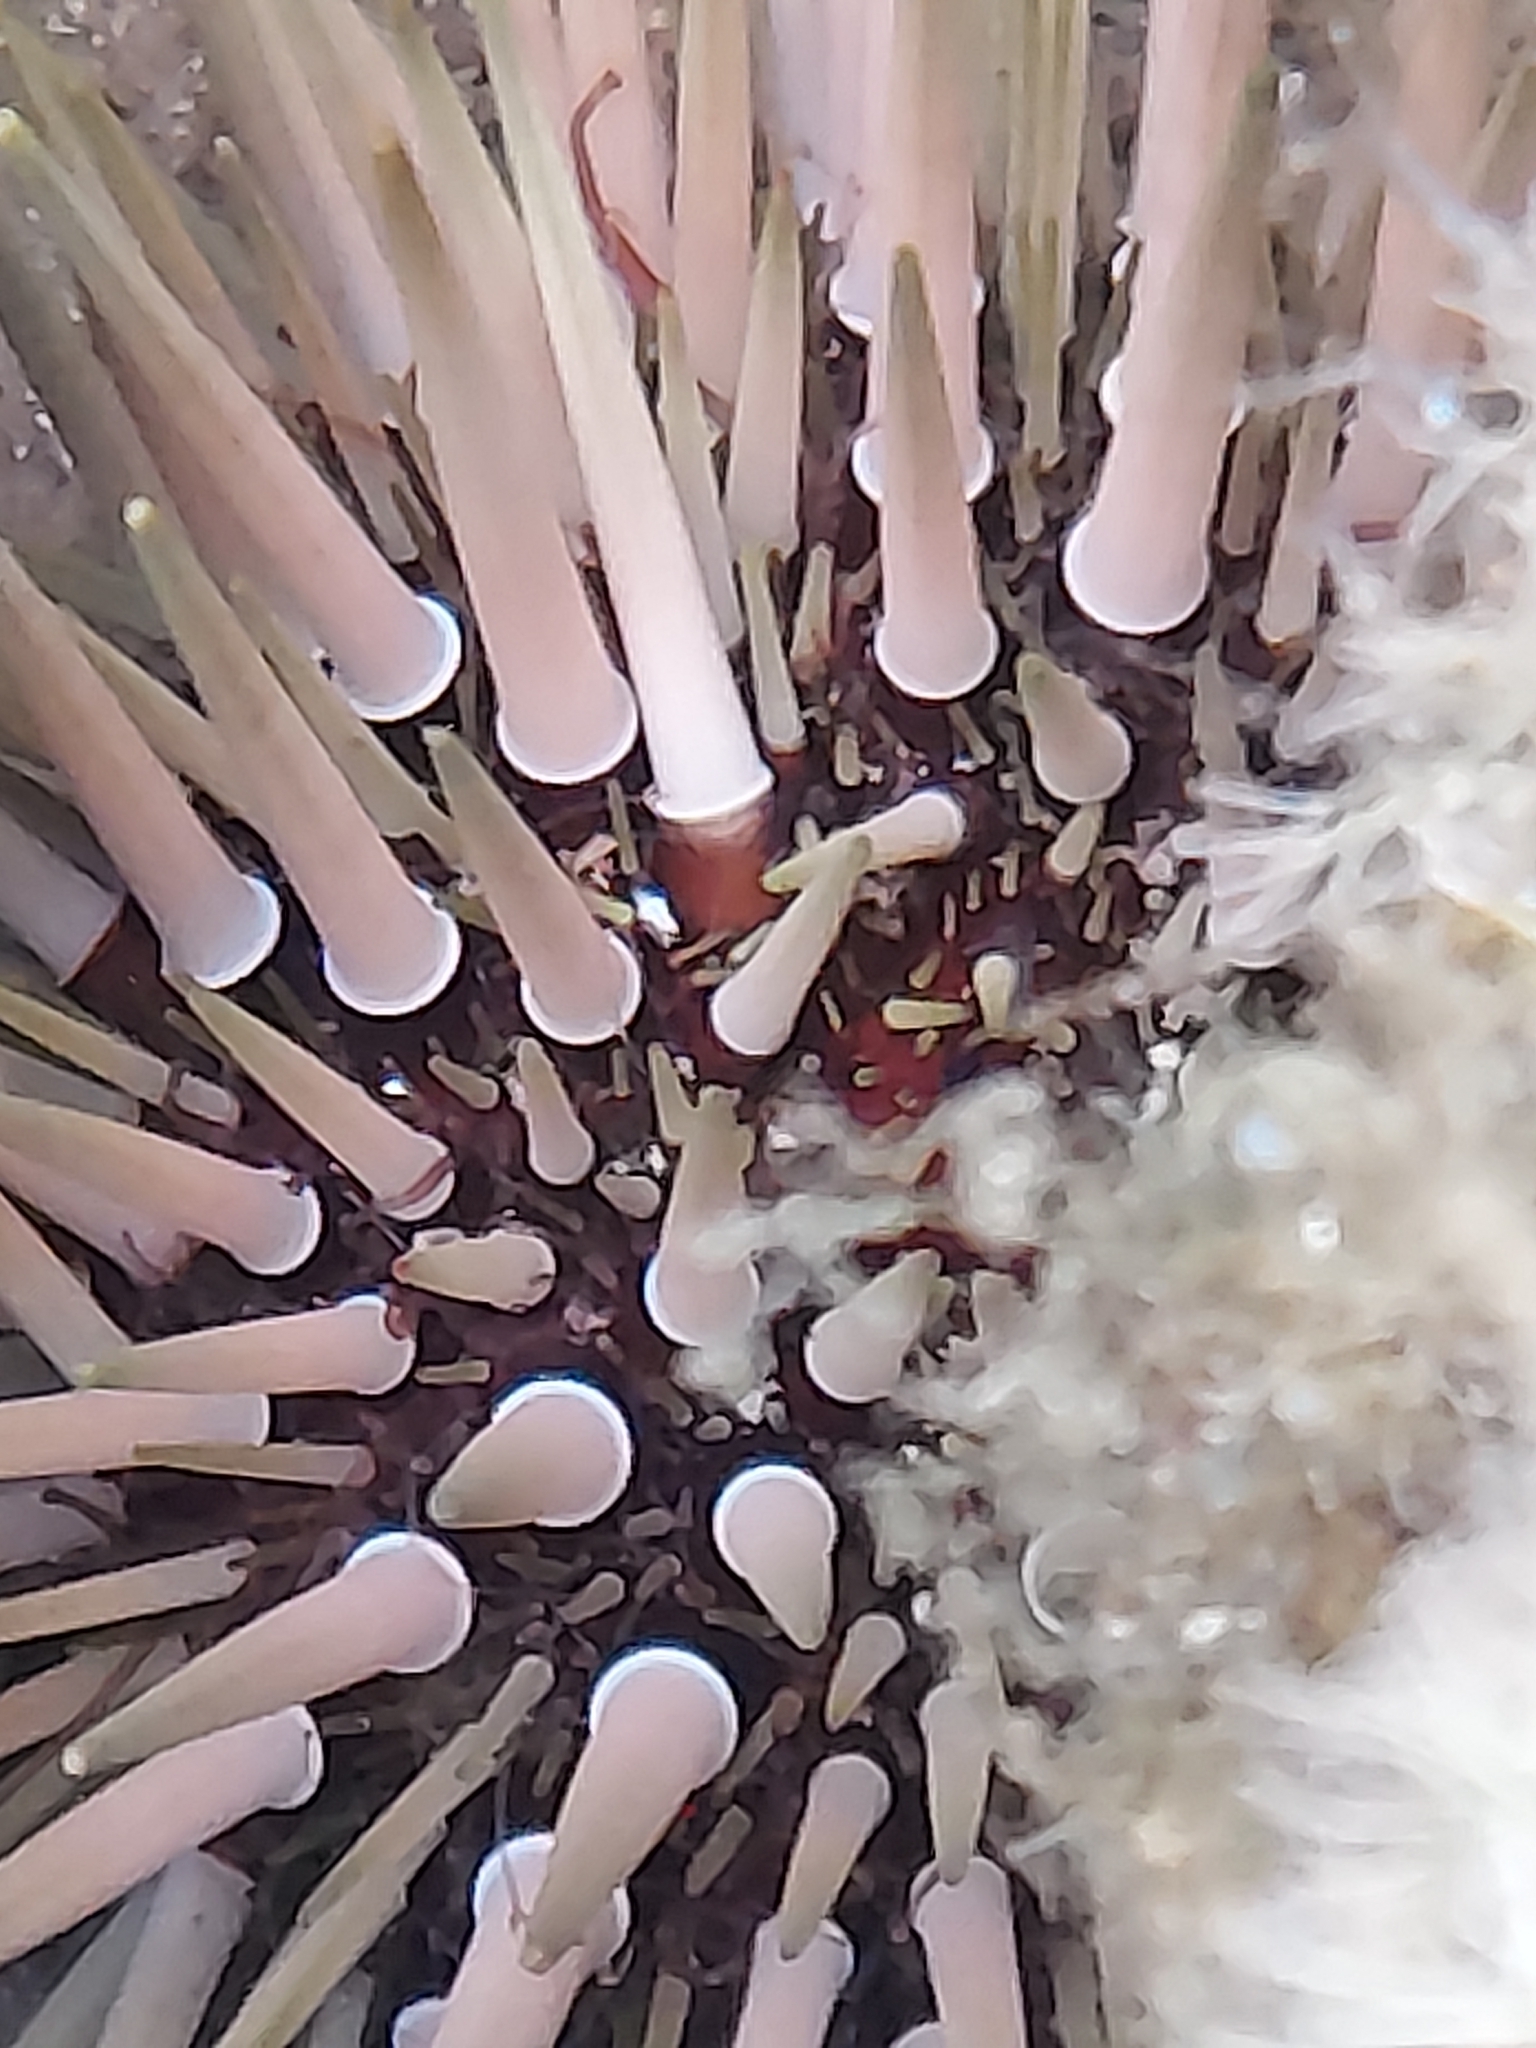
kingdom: Animalia
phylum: Echinodermata
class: Echinoidea
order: Camarodonta
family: Echinometridae
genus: Echinometra
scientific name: Echinometra mathaei
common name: Rock-boring urchin
